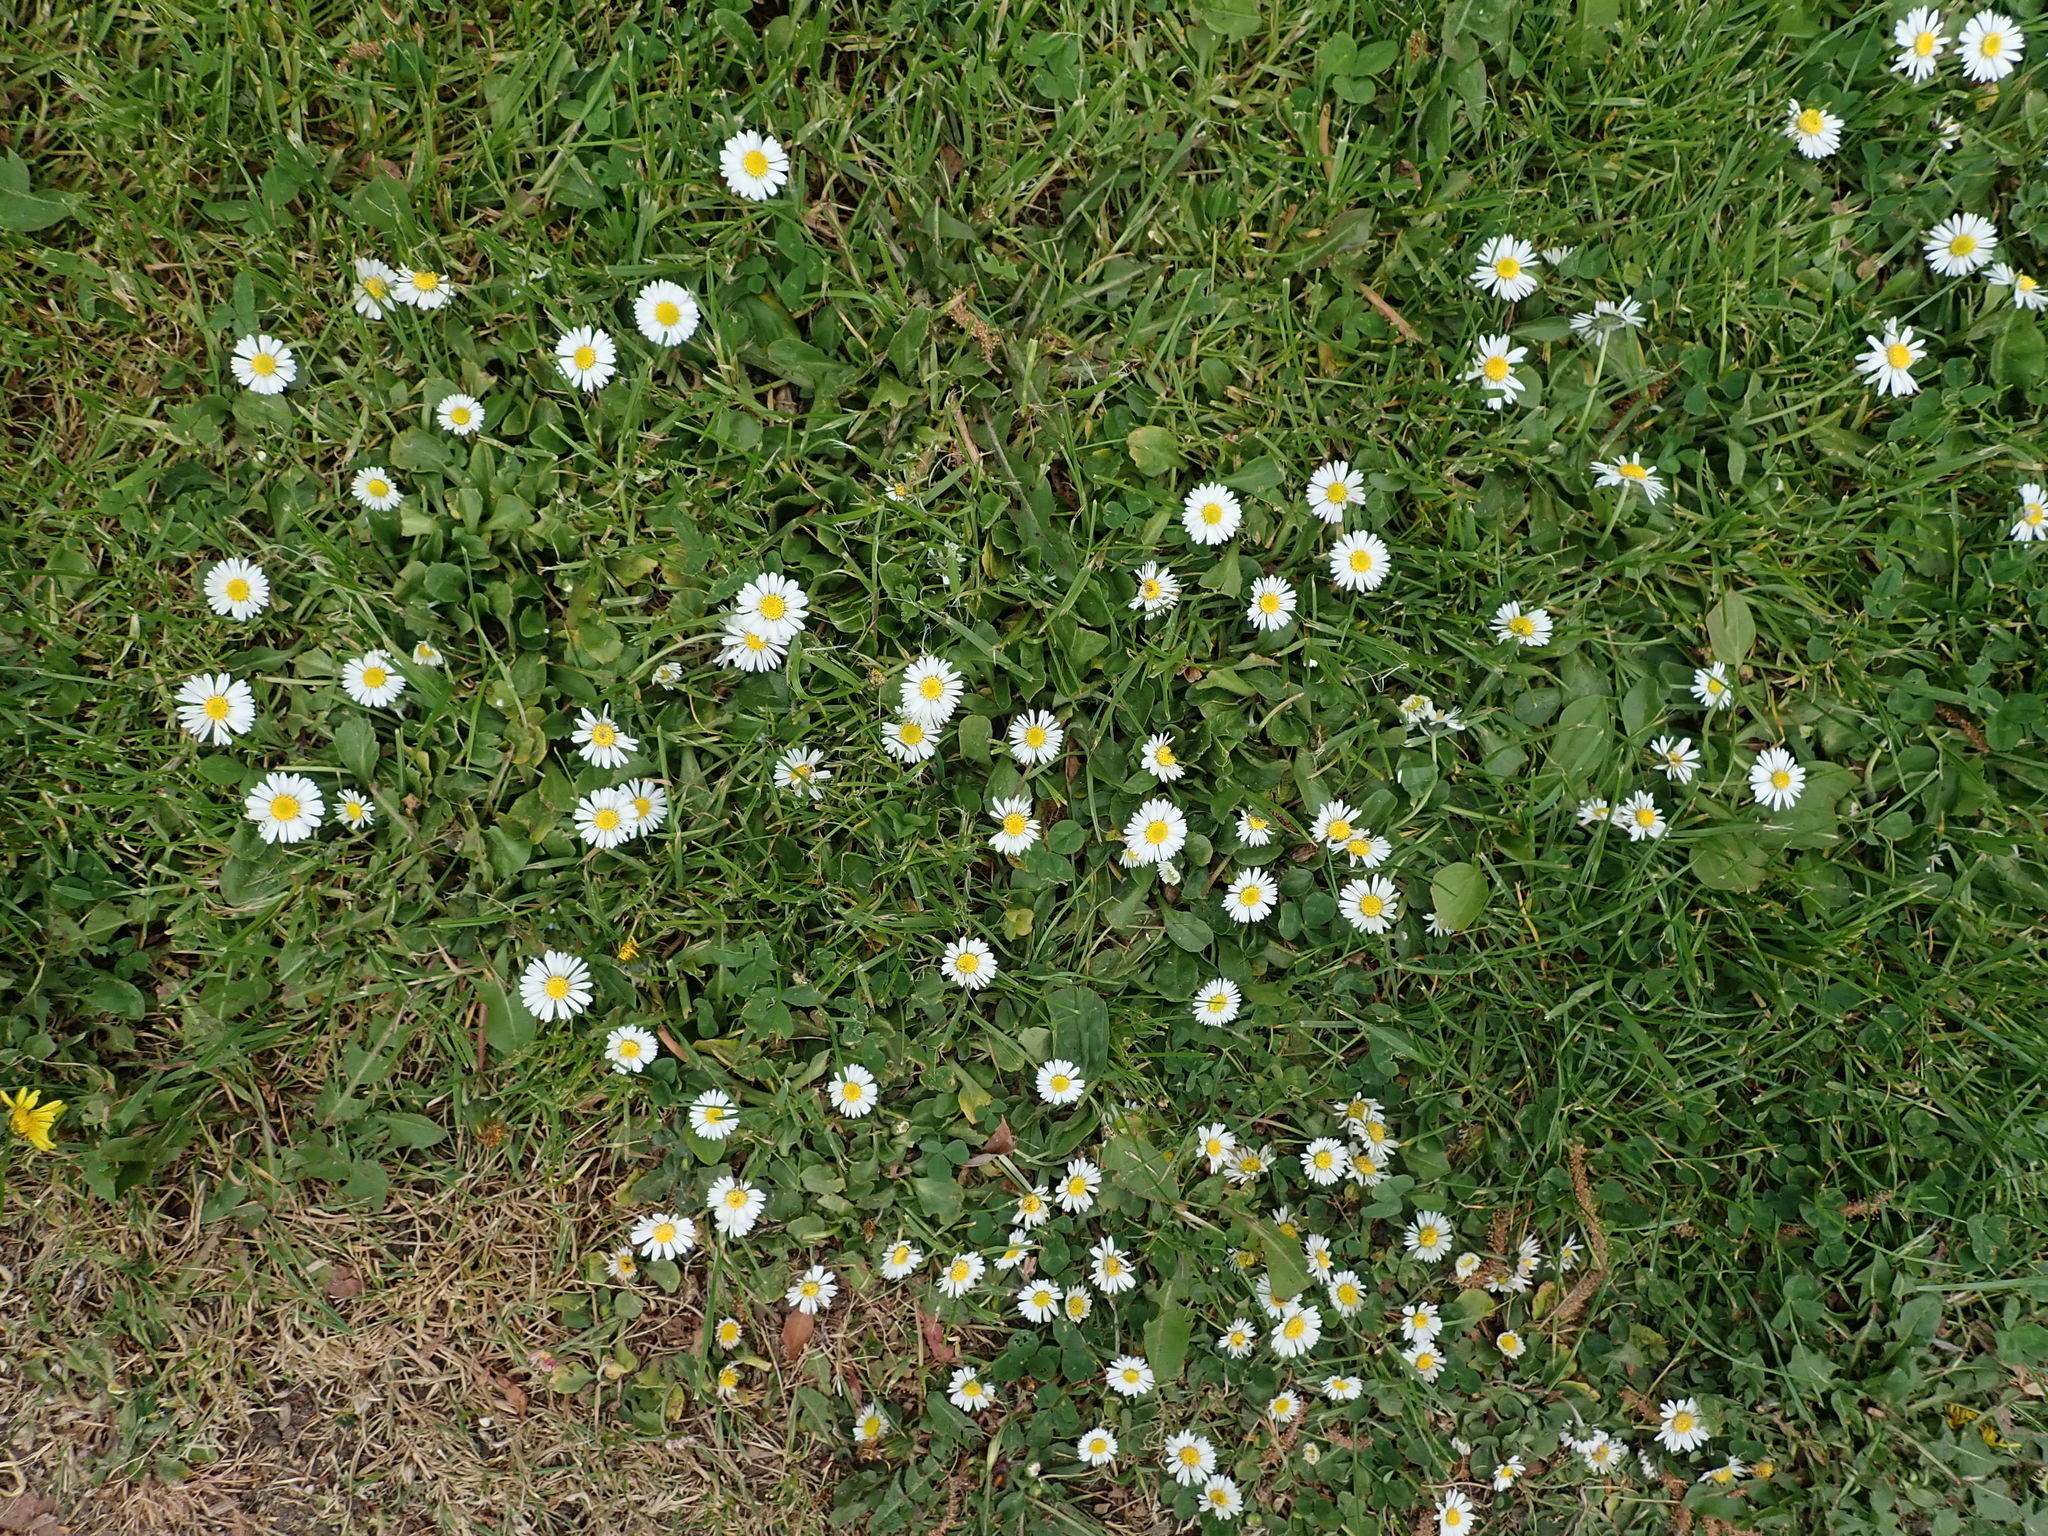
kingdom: Plantae
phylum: Tracheophyta
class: Magnoliopsida
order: Asterales
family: Asteraceae
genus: Bellis
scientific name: Bellis perennis
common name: Lawndaisy
